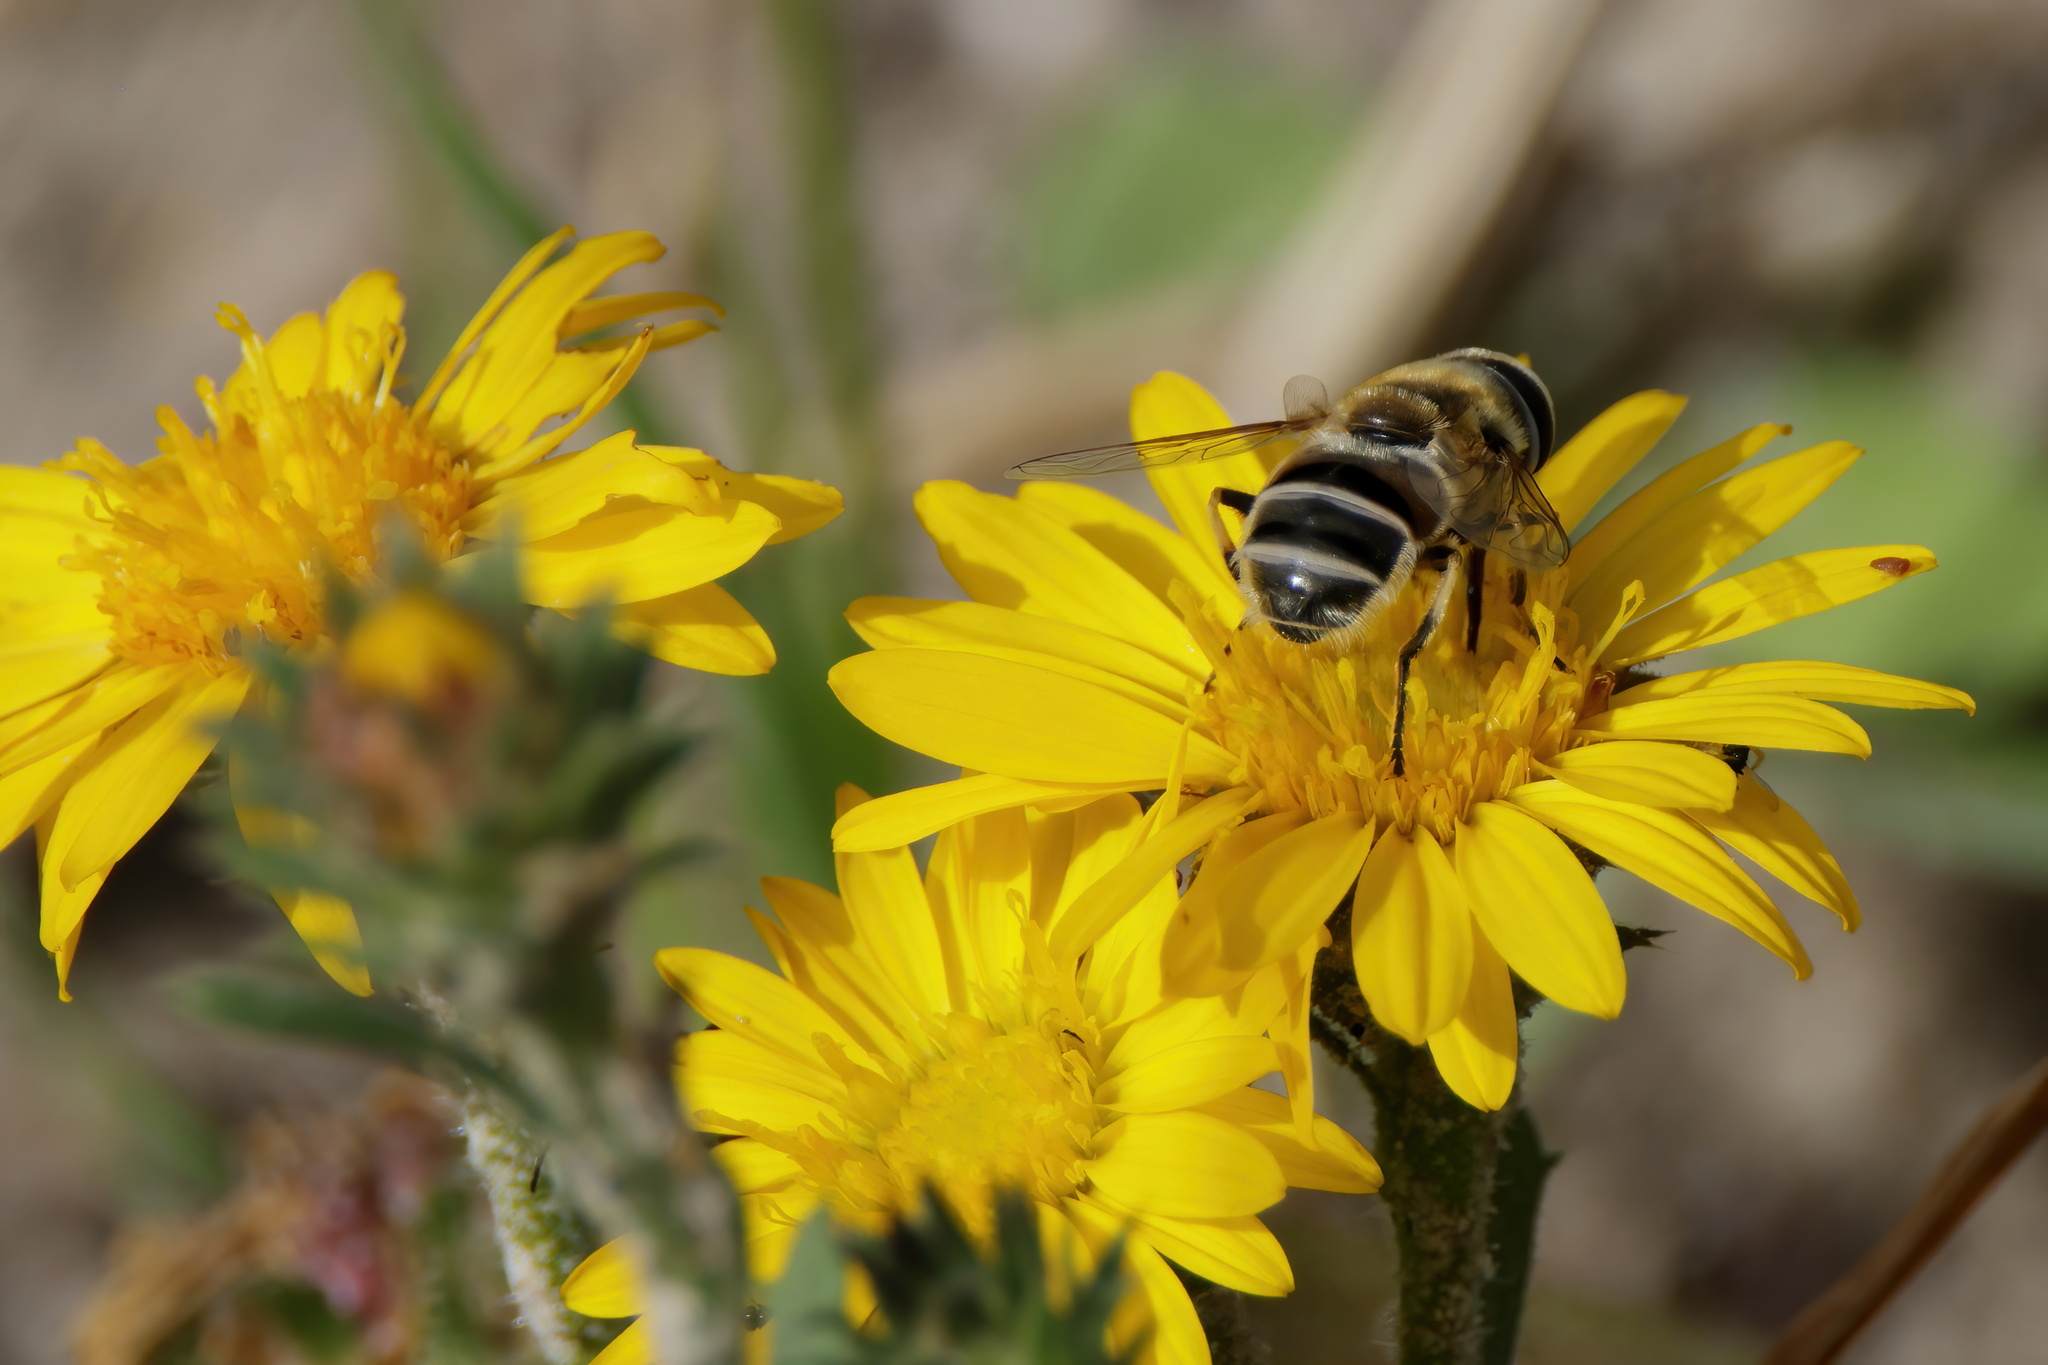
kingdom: Animalia
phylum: Arthropoda
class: Insecta
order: Diptera
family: Syrphidae
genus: Eristalis
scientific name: Eristalis stipator
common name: Yellow-shouldered drone fly
